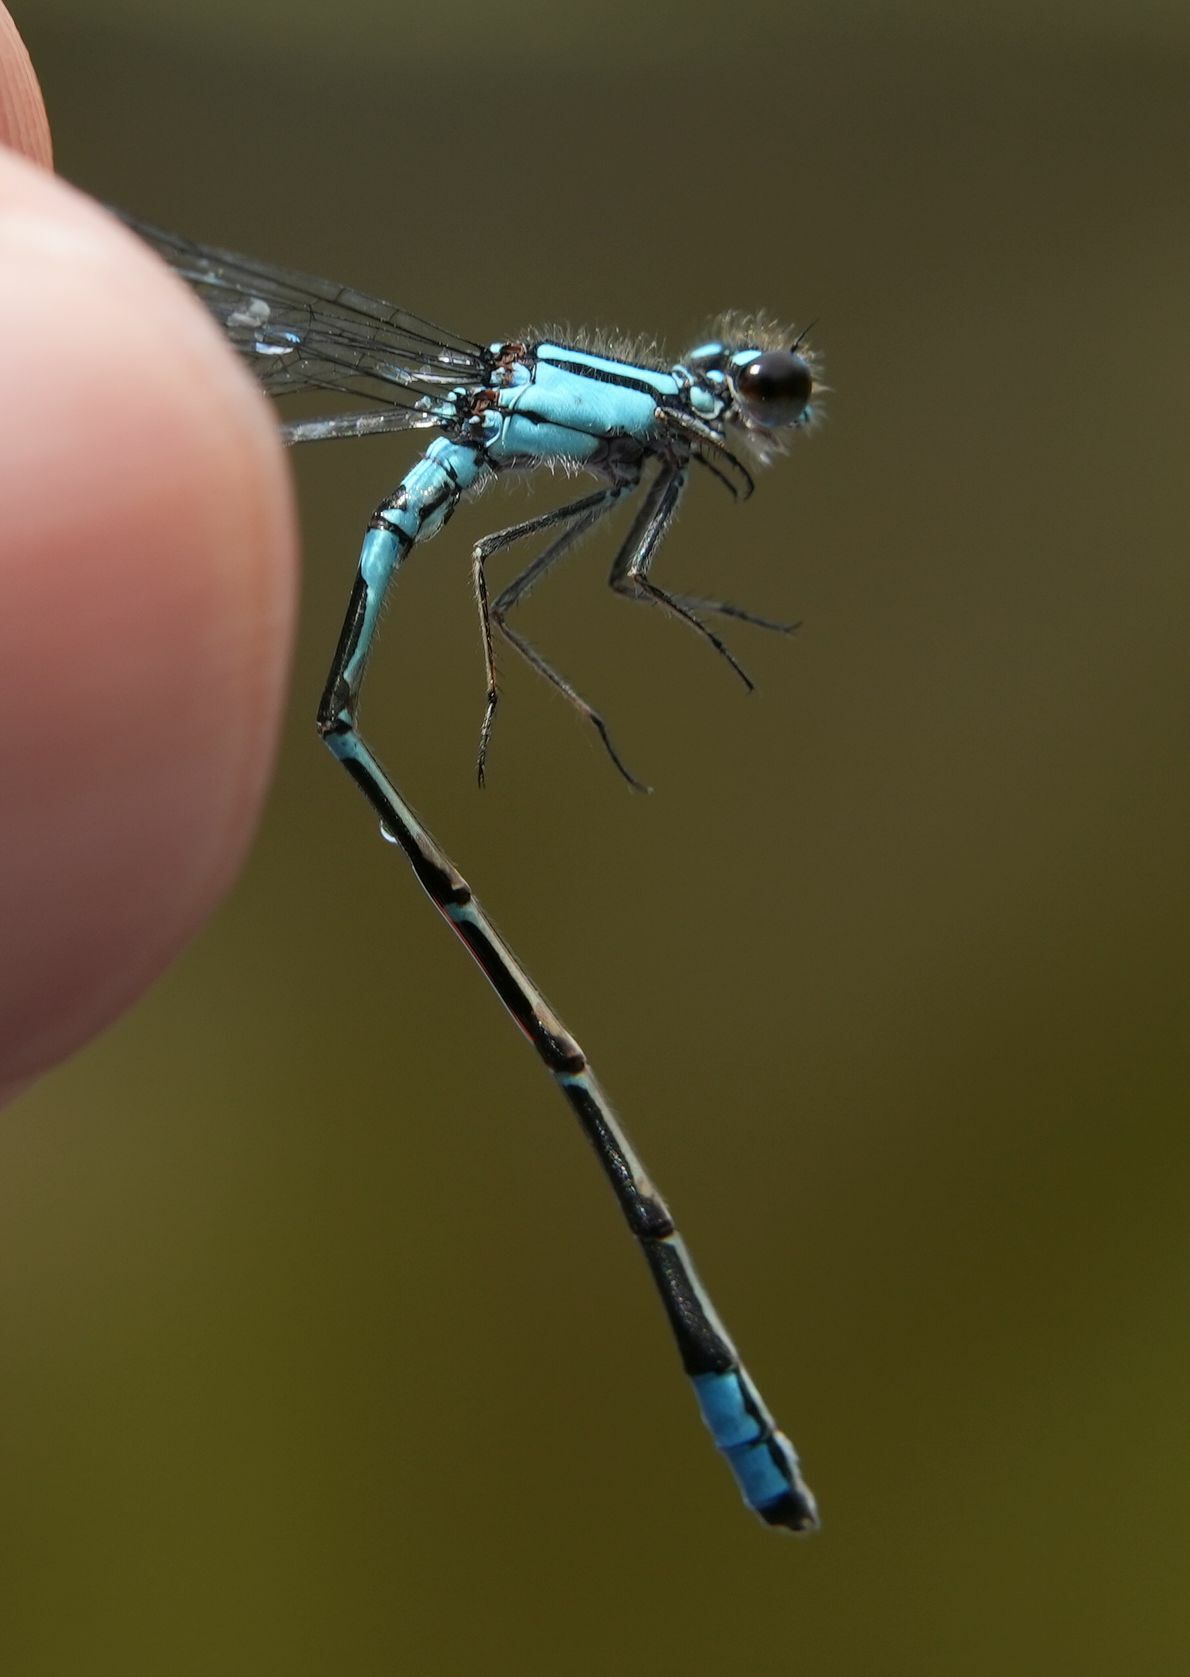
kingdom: Animalia
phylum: Arthropoda
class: Insecta
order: Odonata
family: Coenagrionidae
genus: Enallagma
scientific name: Enallagma geminatum
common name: Skimming bluet
